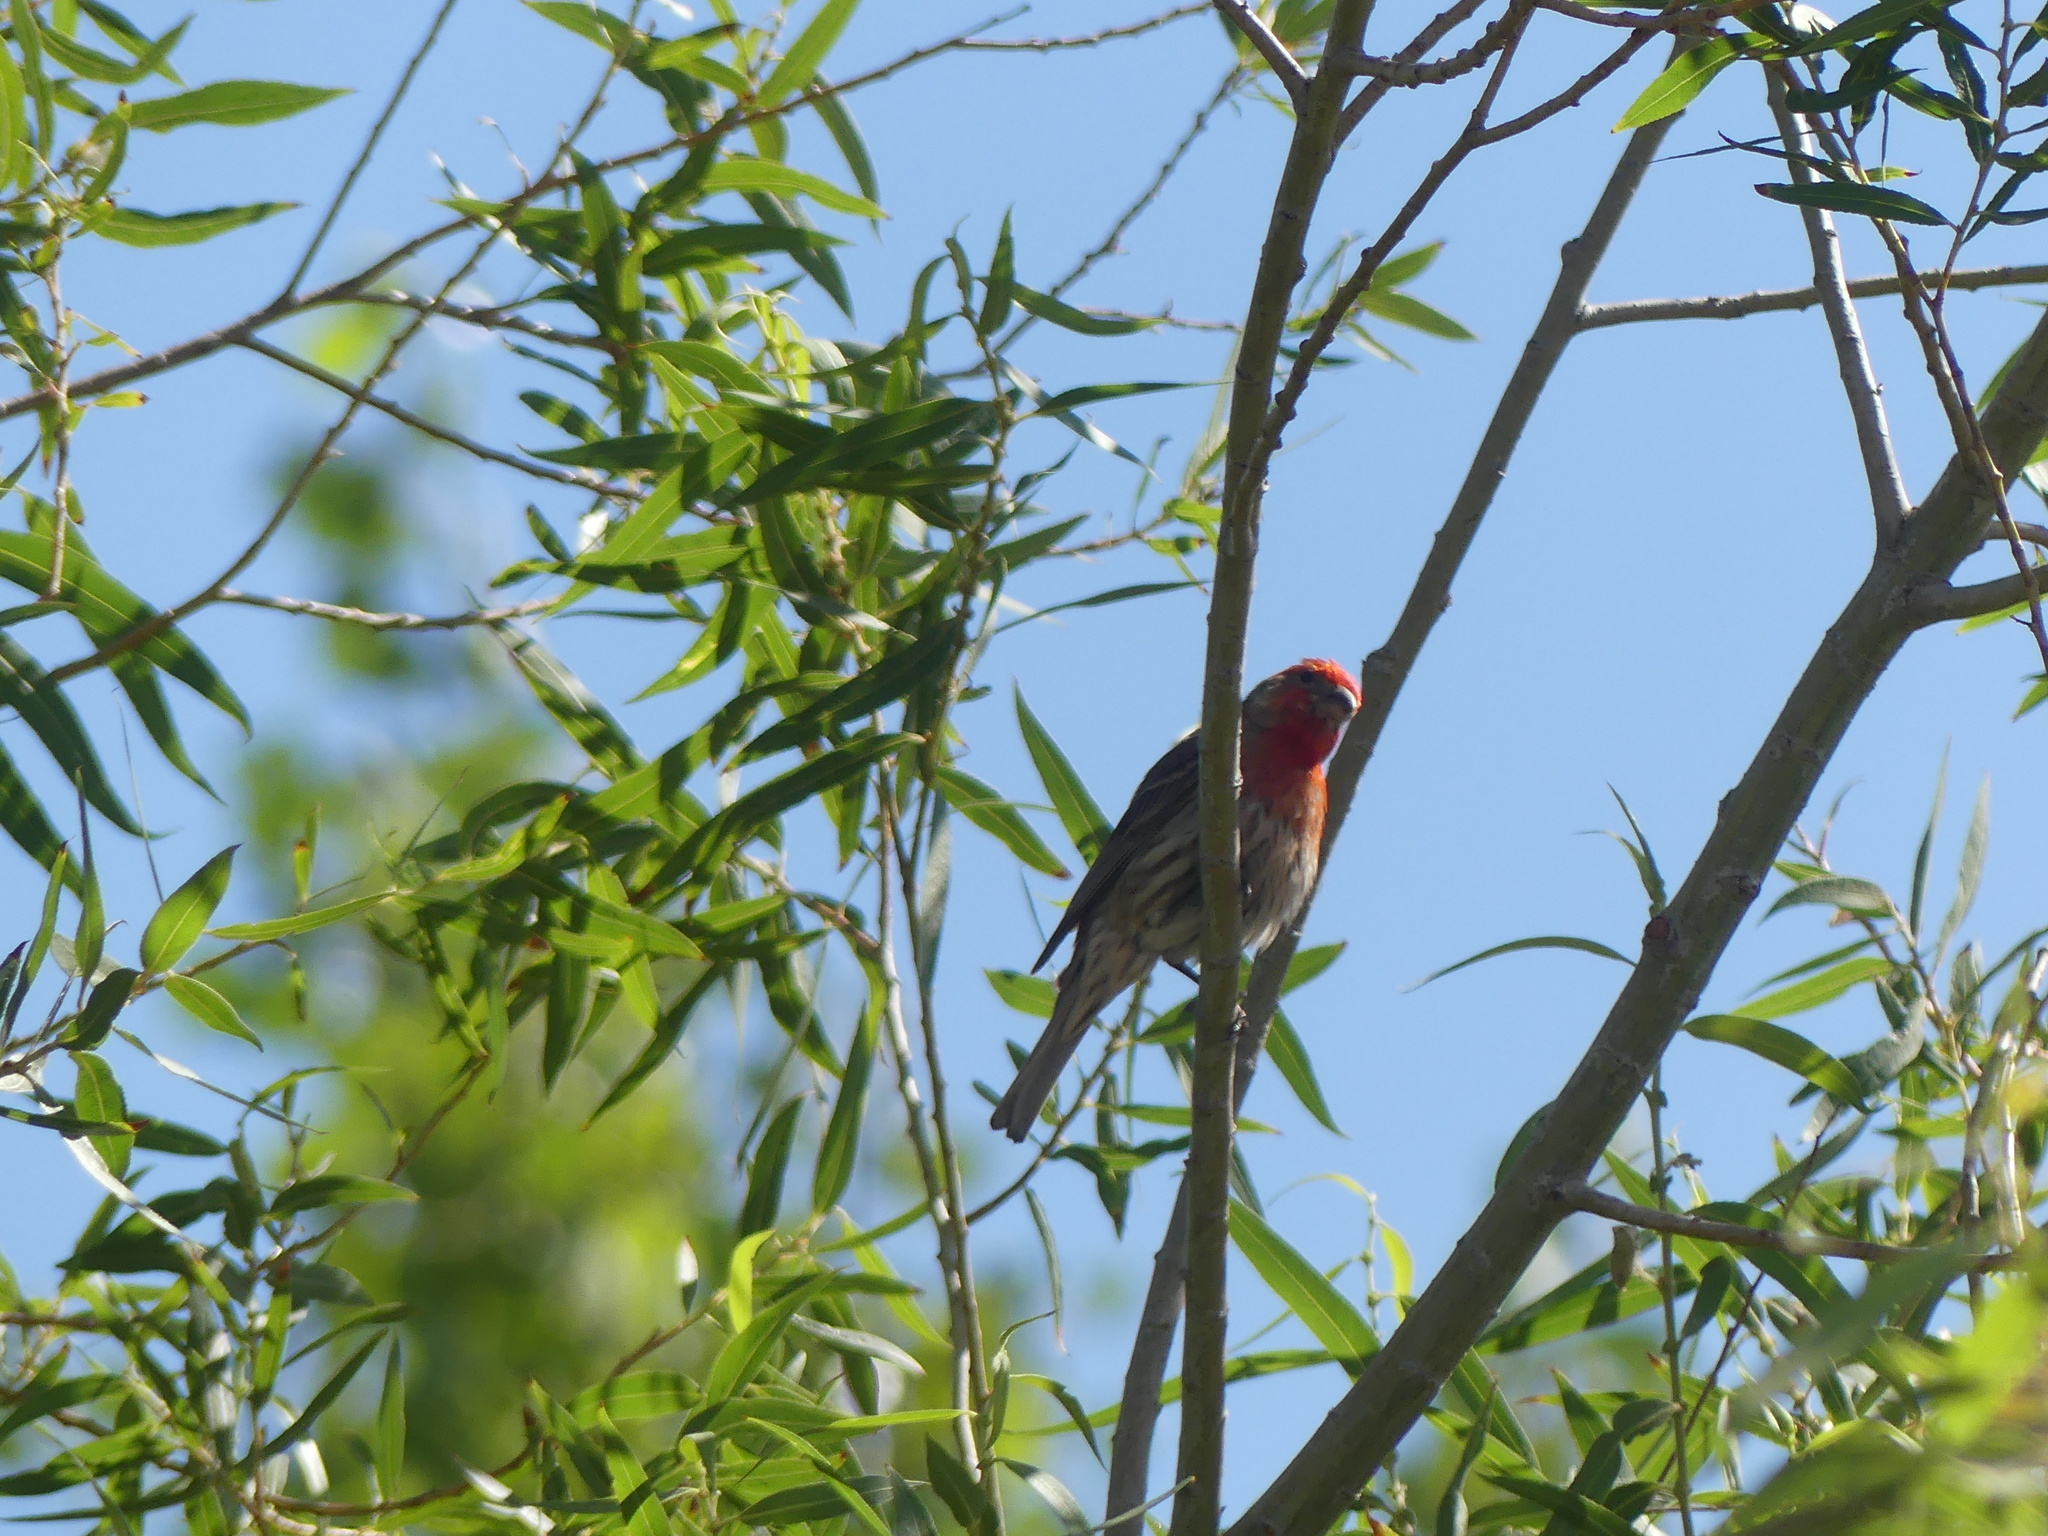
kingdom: Animalia
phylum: Chordata
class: Aves
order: Passeriformes
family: Fringillidae
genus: Haemorhous
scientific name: Haemorhous mexicanus
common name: House finch
